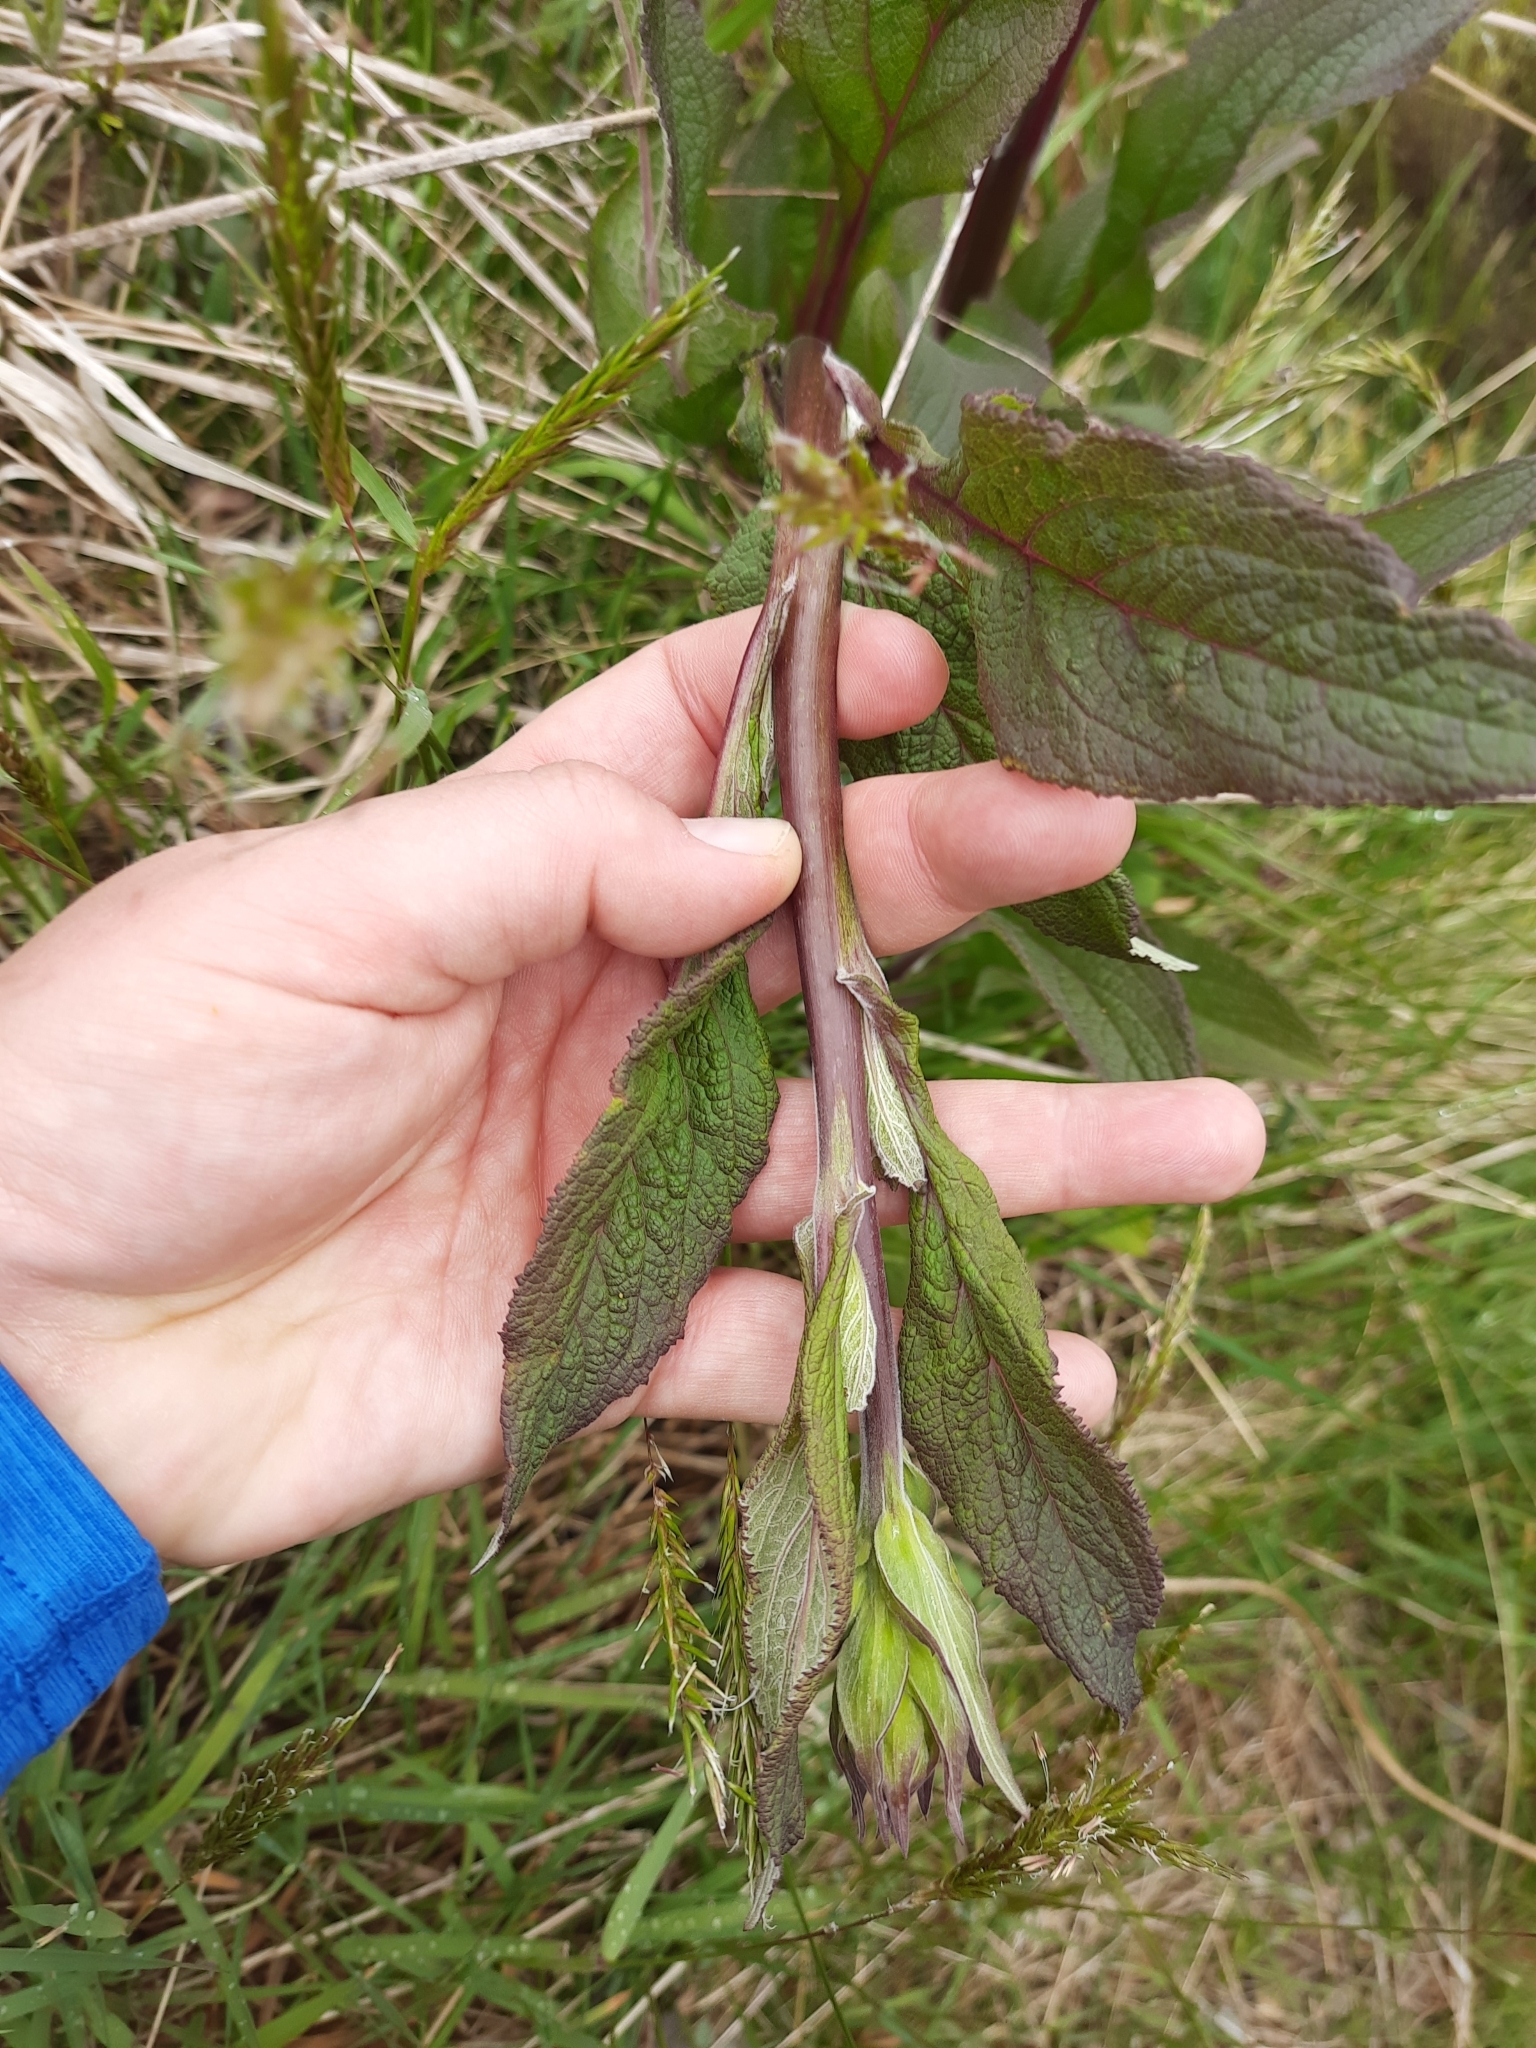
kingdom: Plantae
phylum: Tracheophyta
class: Magnoliopsida
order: Lamiales
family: Plantaginaceae
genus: Digitalis
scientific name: Digitalis purpurea
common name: Foxglove
